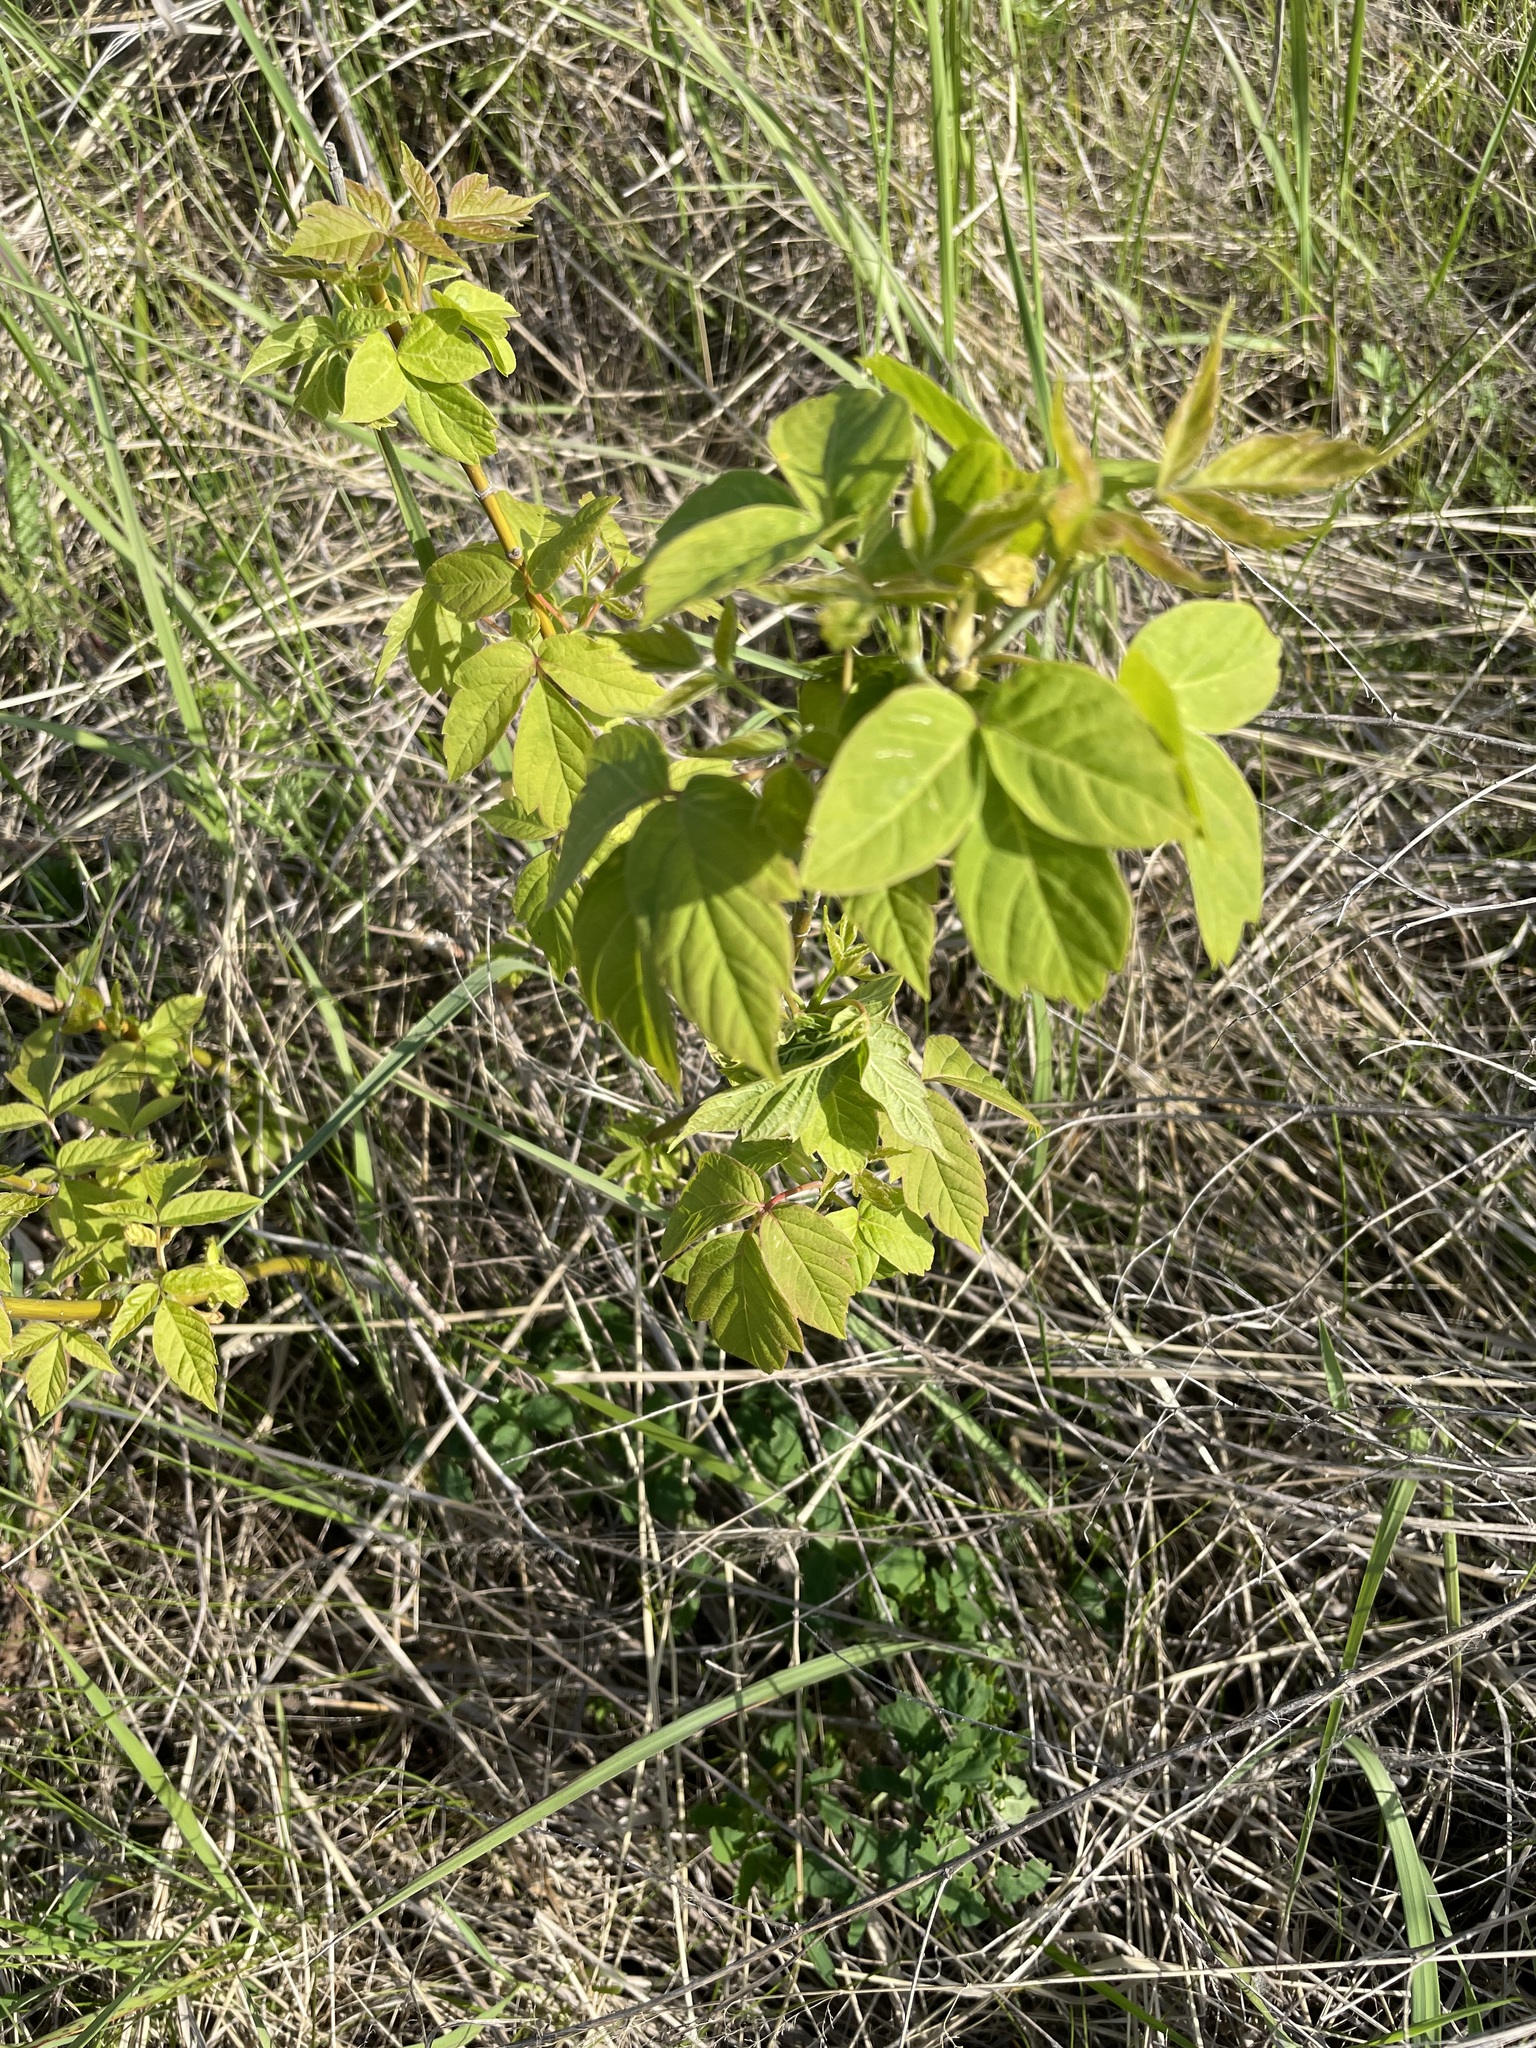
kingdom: Plantae
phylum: Tracheophyta
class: Magnoliopsida
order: Sapindales
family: Sapindaceae
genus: Acer
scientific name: Acer negundo
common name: Ashleaf maple
